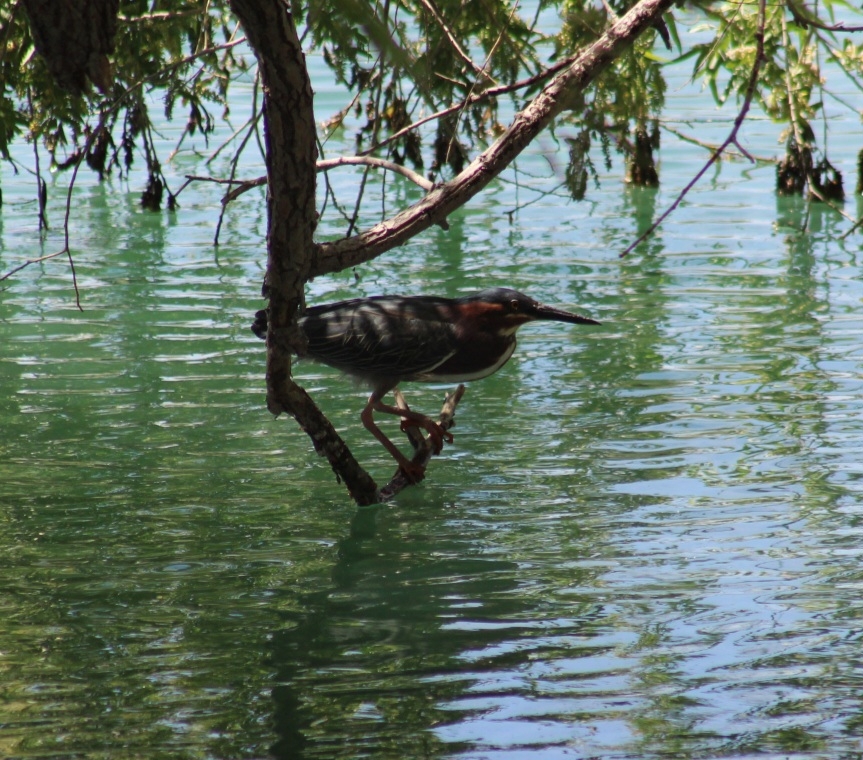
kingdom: Animalia
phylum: Chordata
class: Aves
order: Pelecaniformes
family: Ardeidae
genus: Butorides
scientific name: Butorides virescens
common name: Green heron
